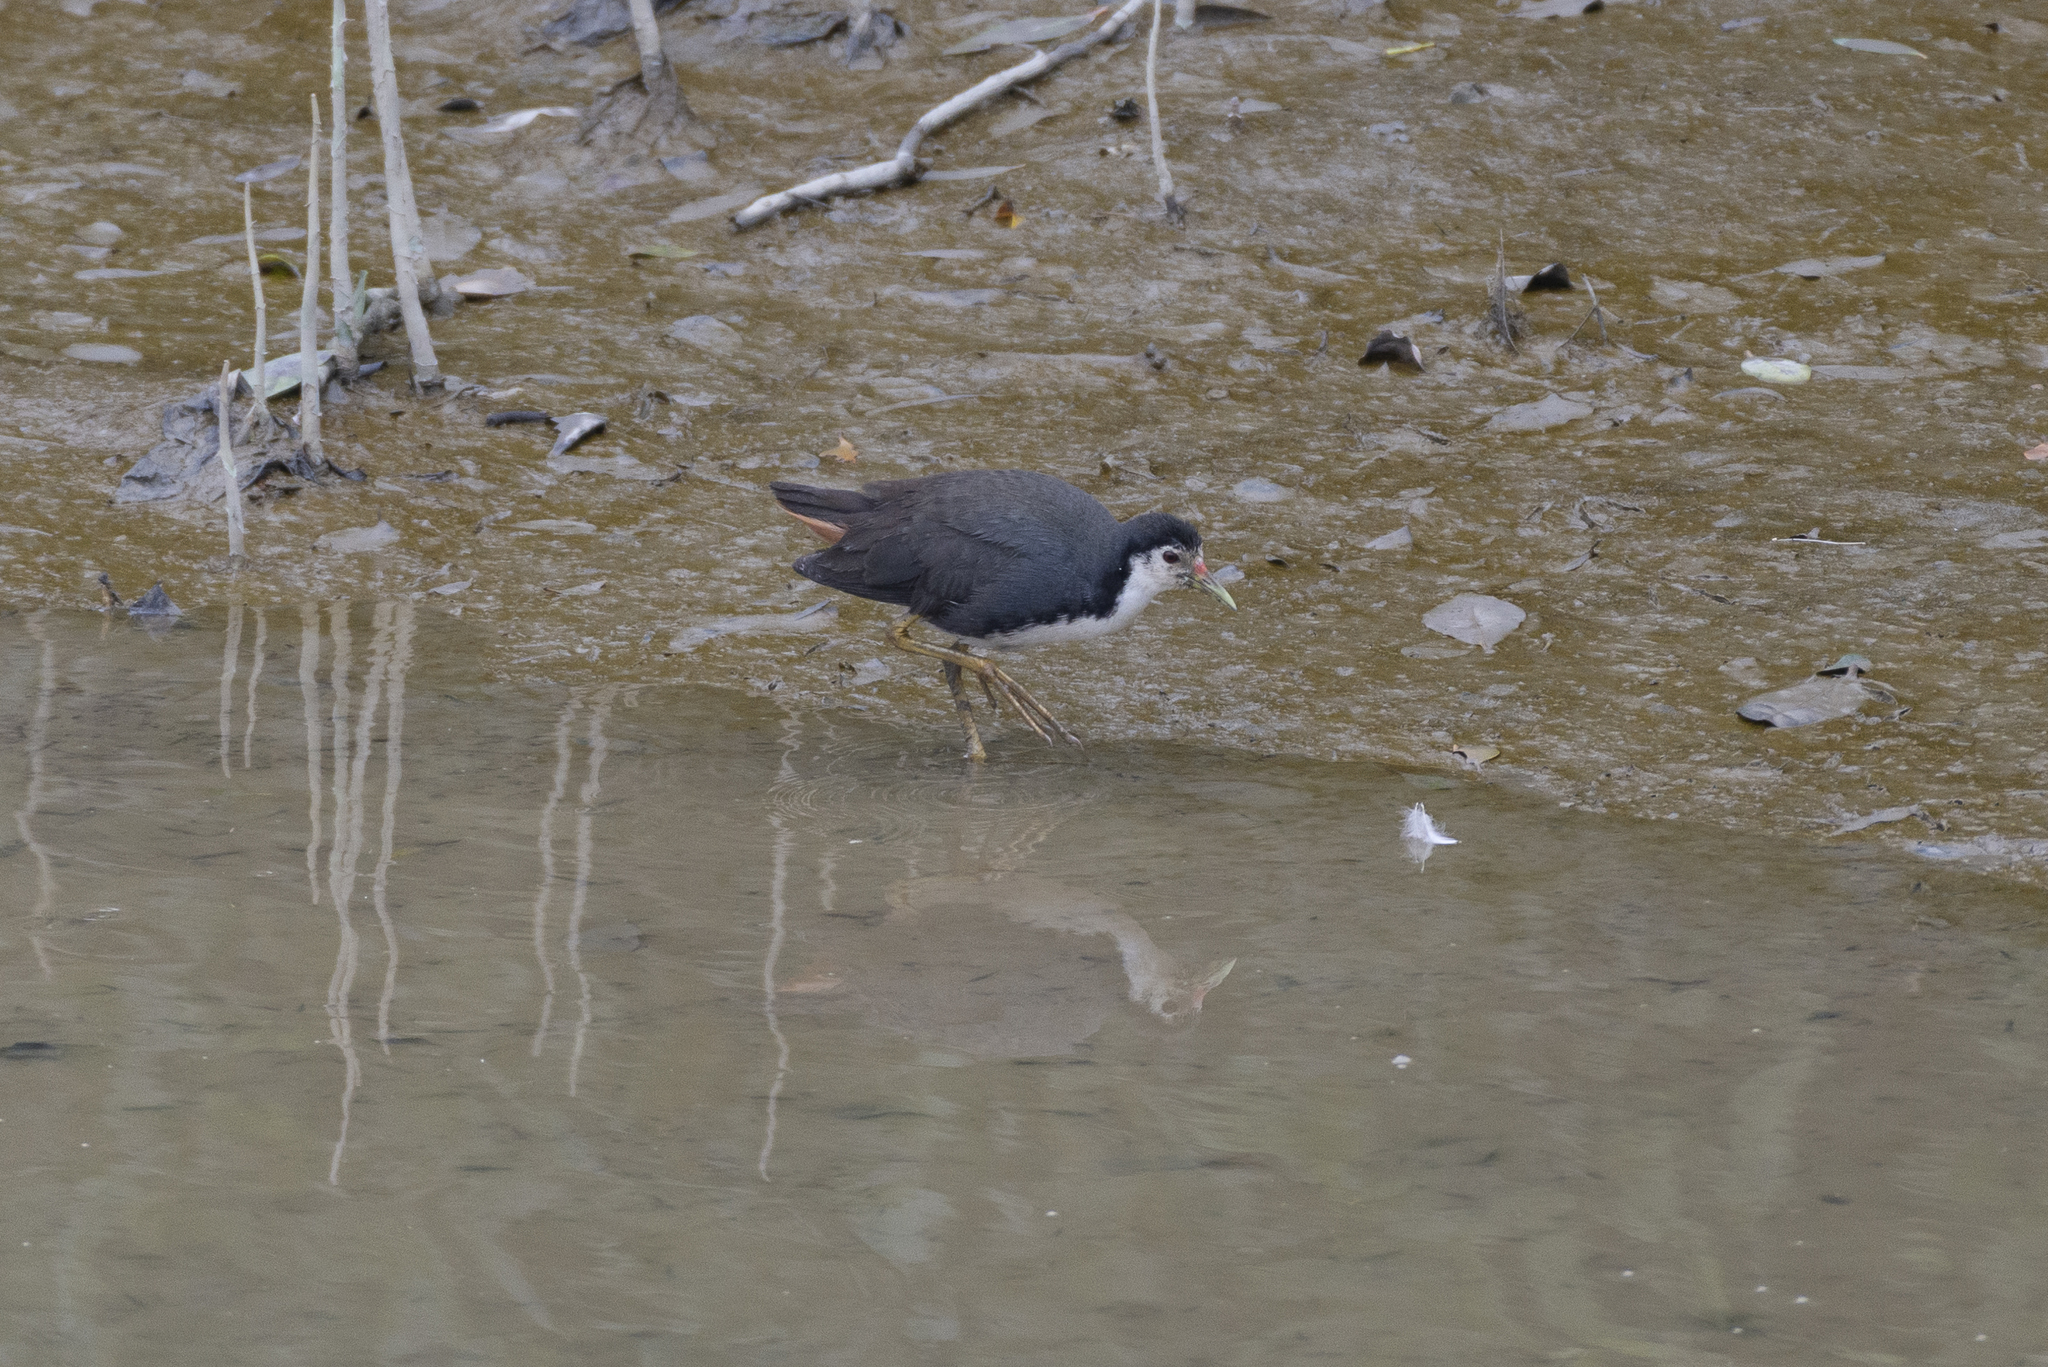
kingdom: Animalia
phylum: Chordata
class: Aves
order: Gruiformes
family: Rallidae
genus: Amaurornis
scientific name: Amaurornis phoenicurus
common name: White-breasted waterhen
